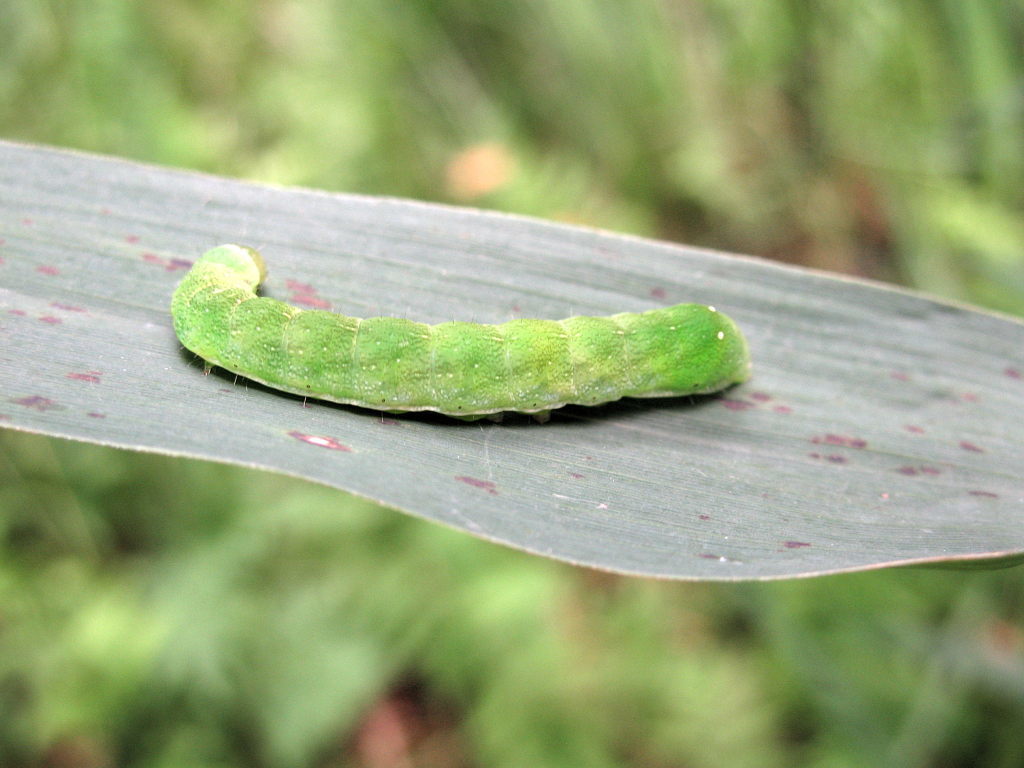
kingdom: Animalia
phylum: Arthropoda
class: Insecta
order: Lepidoptera
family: Noctuidae
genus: Euplexia
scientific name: Euplexia lucipara
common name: Small angle shades
